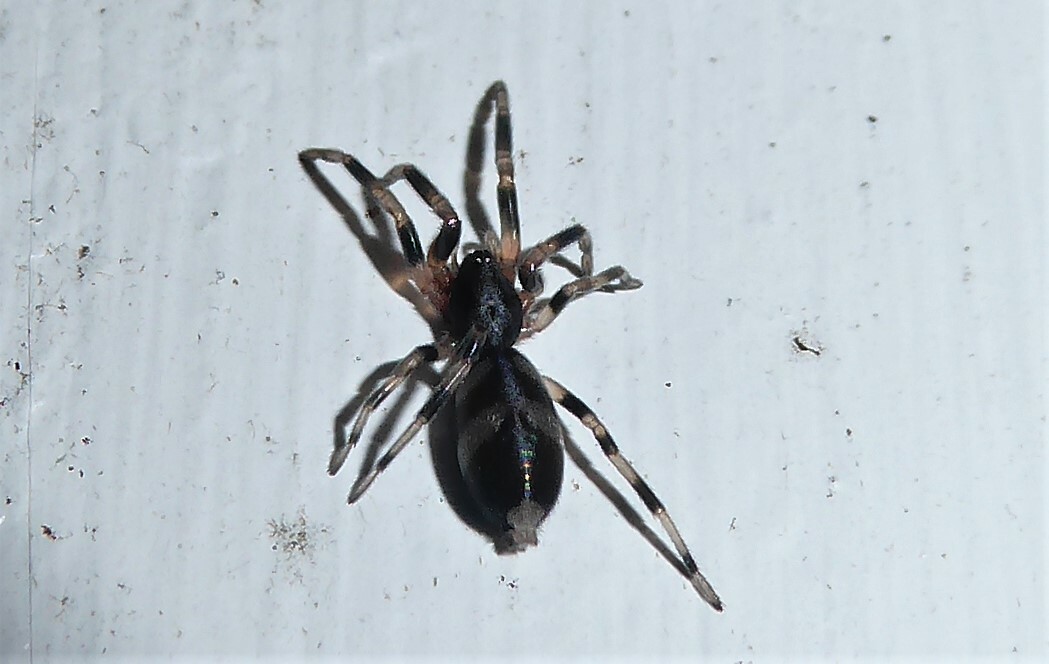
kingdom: Animalia
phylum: Arthropoda
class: Arachnida
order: Araneae
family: Lamponidae
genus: Lampona
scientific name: Lampona cylindrata
